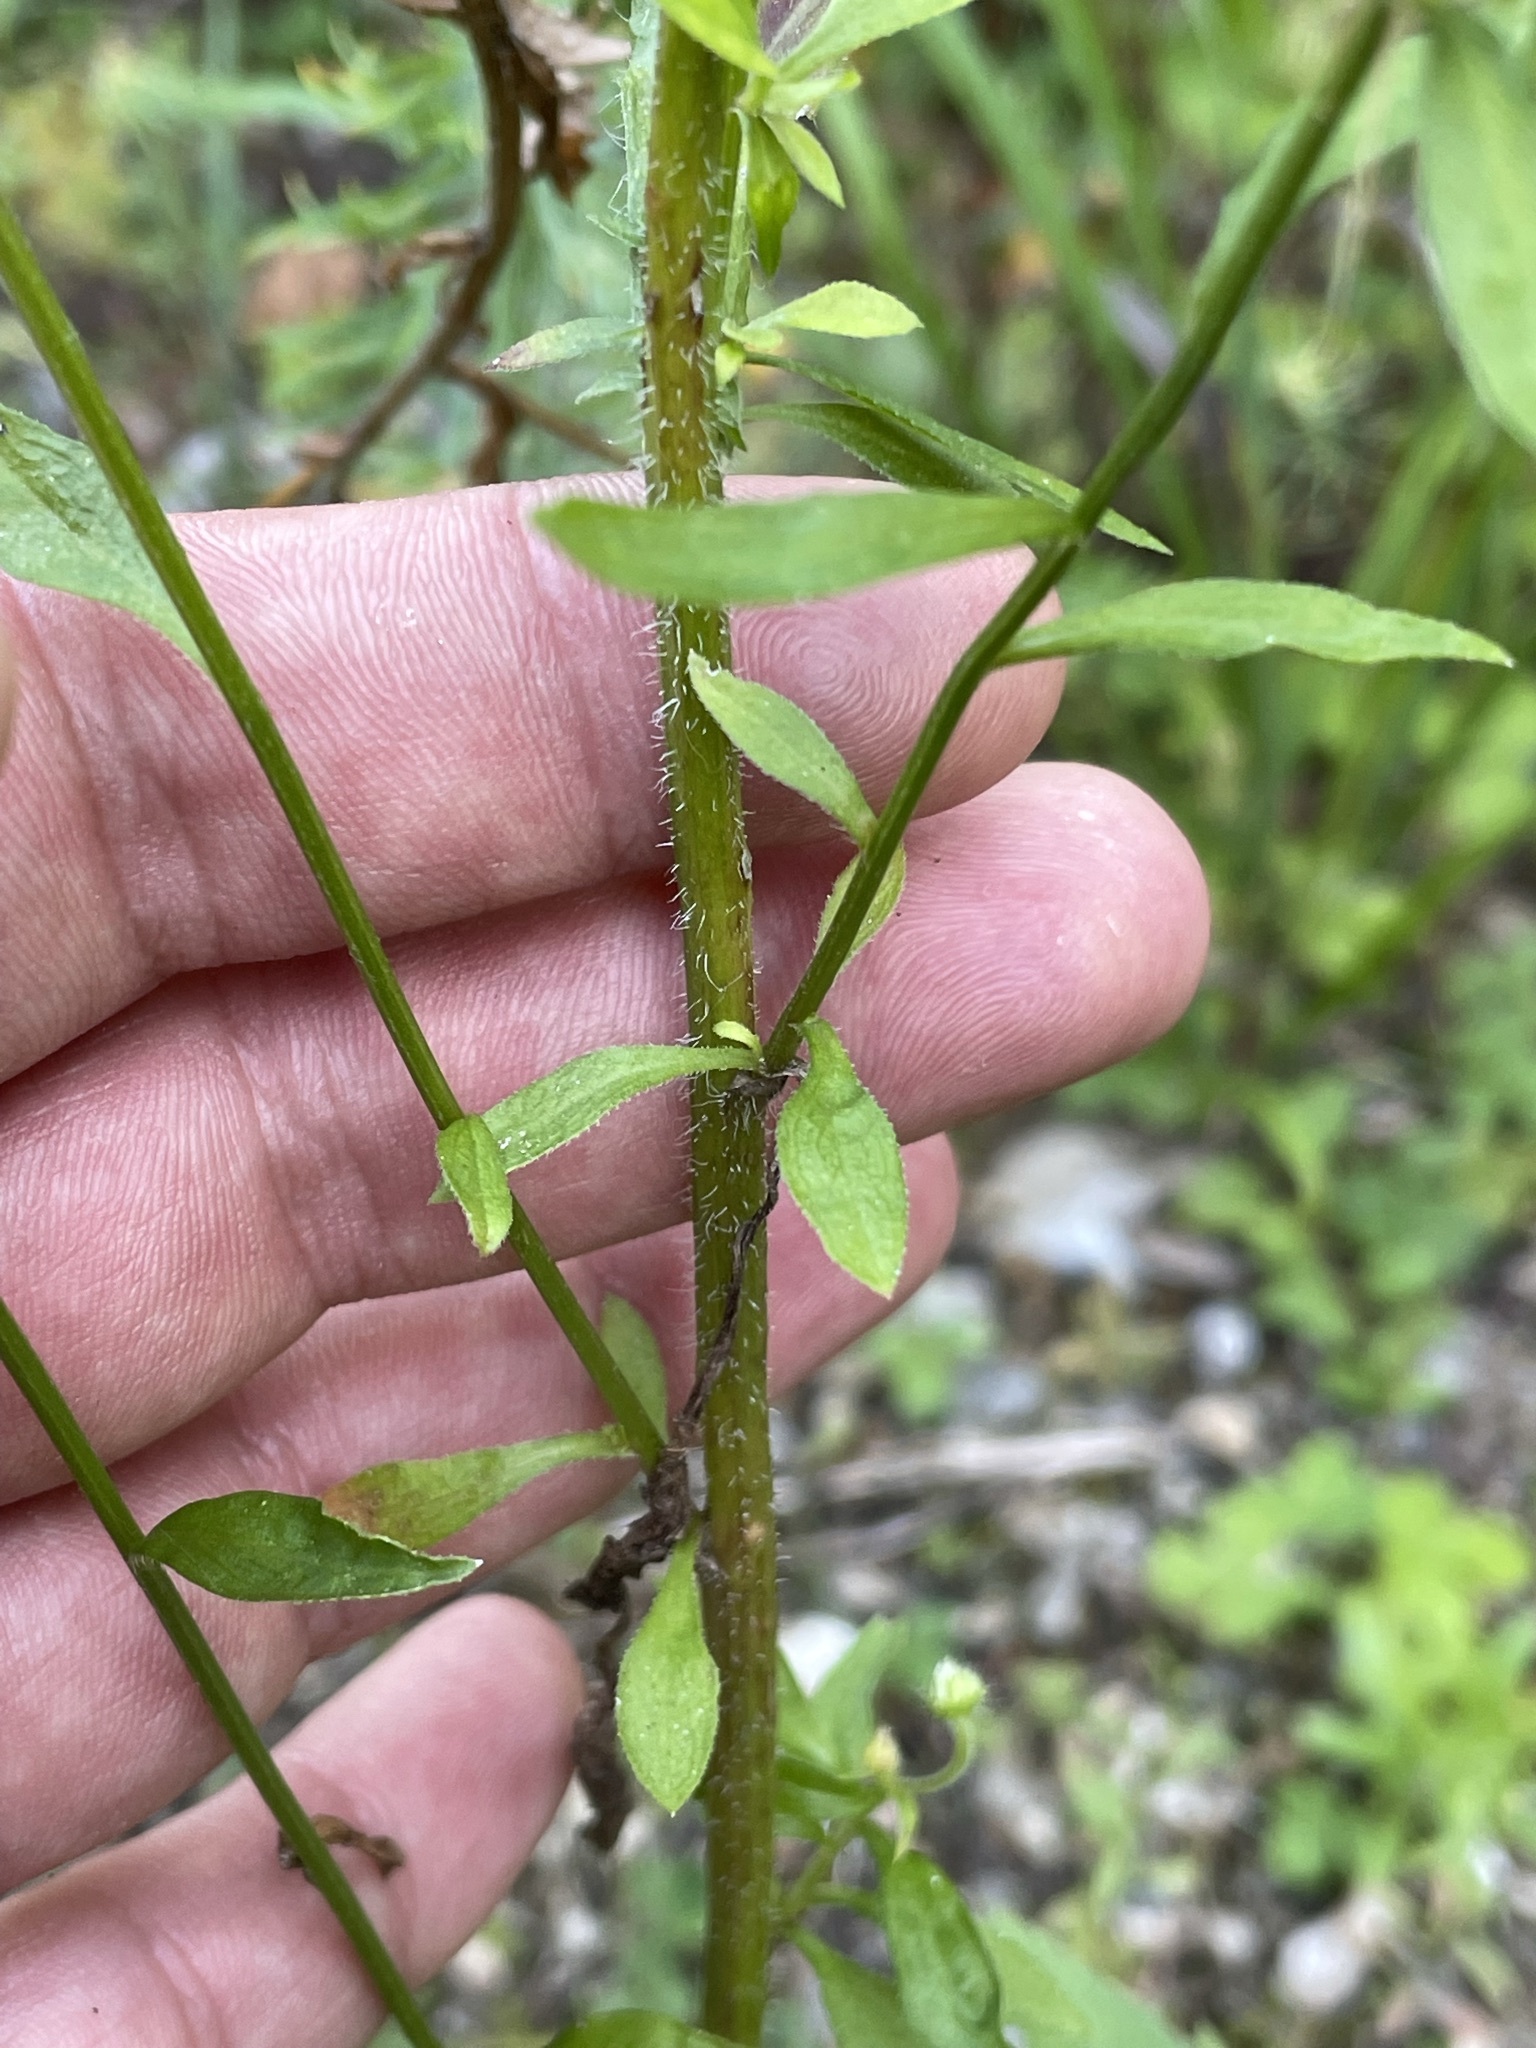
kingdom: Plantae
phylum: Tracheophyta
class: Magnoliopsida
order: Asterales
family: Asteraceae
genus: Erigeron
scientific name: Erigeron annuus
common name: Tall fleabane
